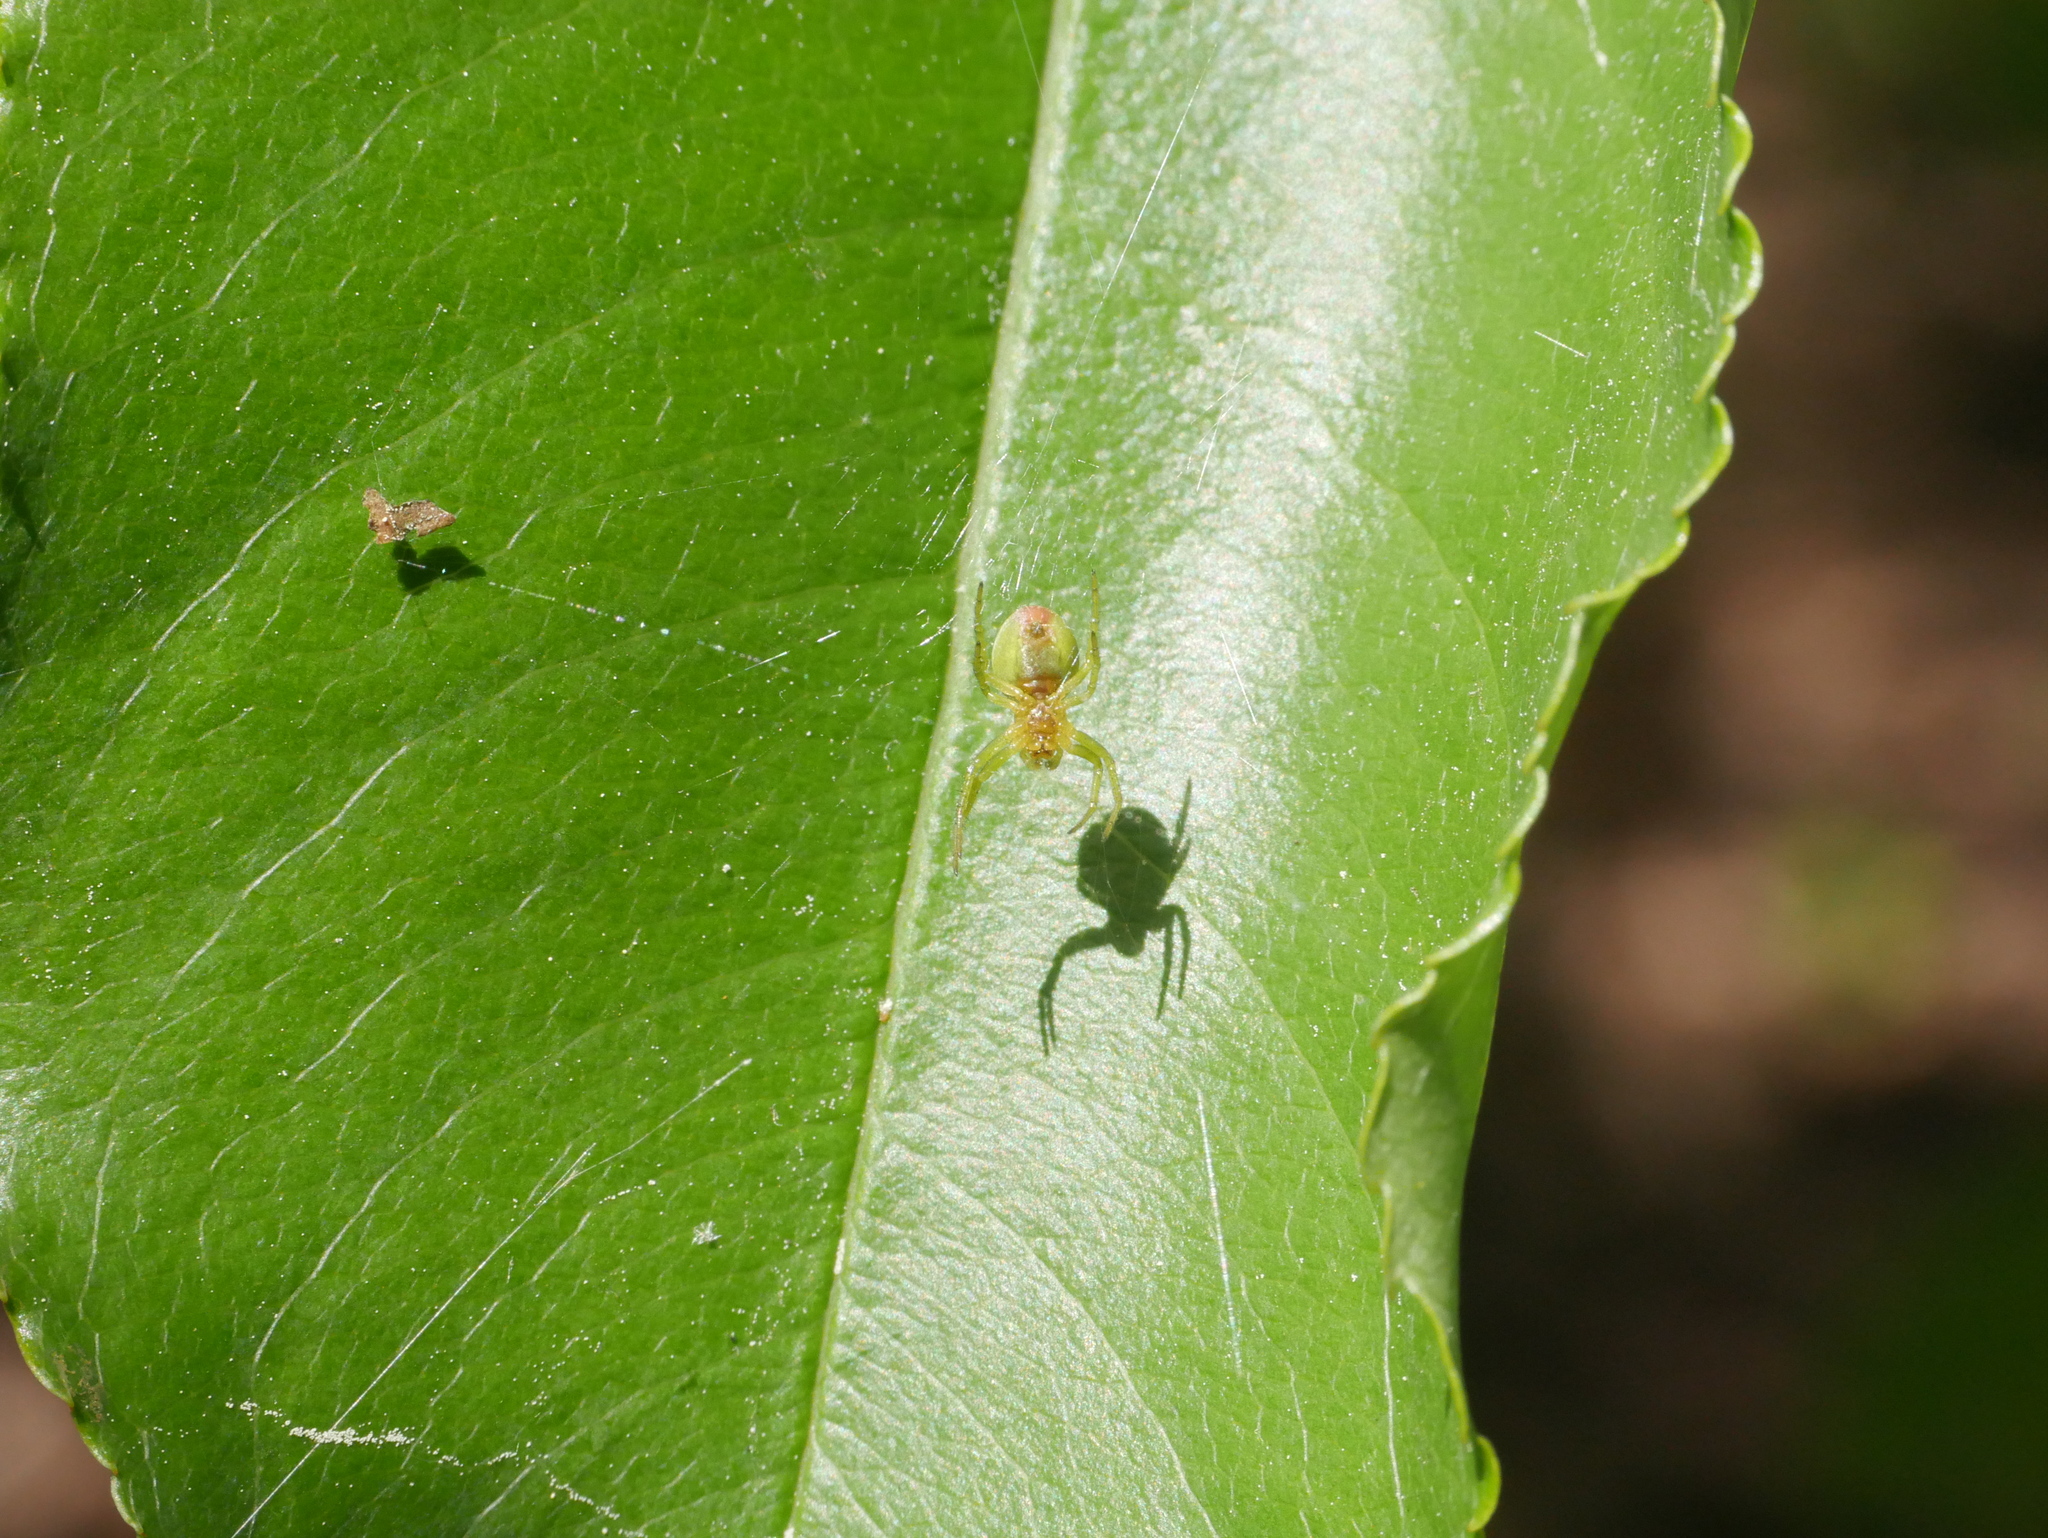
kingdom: Animalia
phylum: Arthropoda
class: Arachnida
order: Araneae
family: Araneidae
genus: Araniella
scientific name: Araniella
